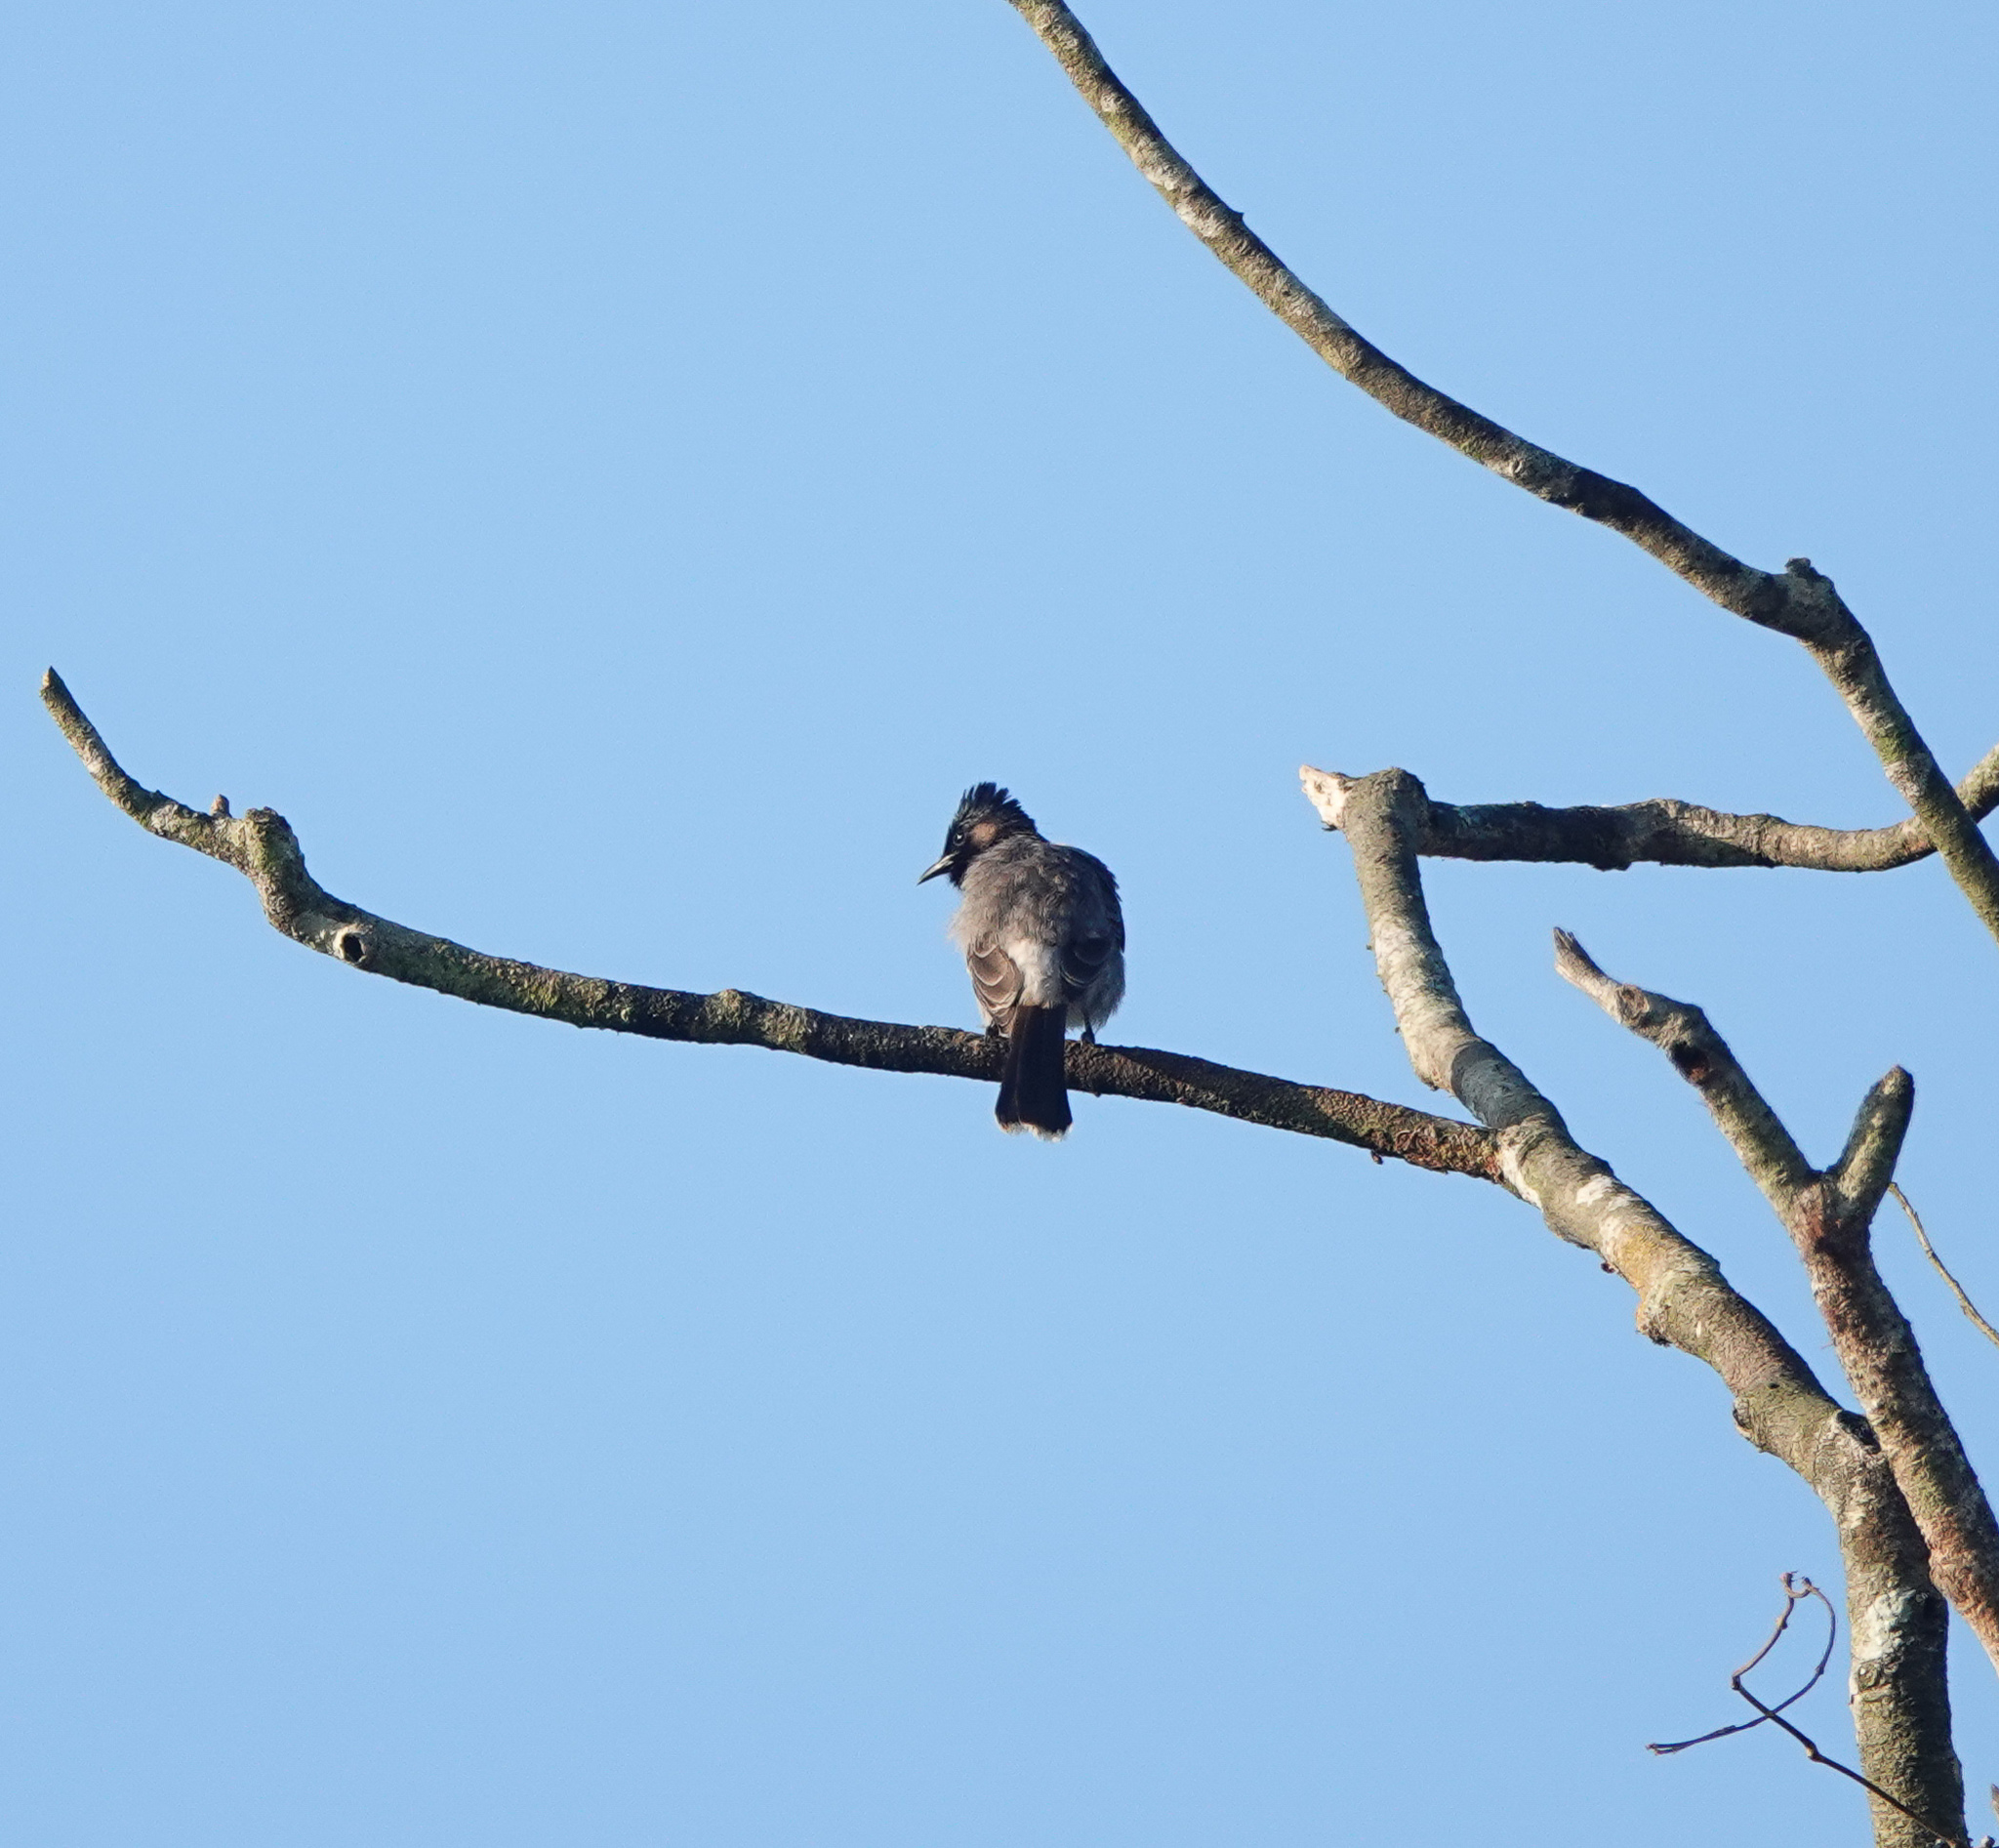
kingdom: Animalia
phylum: Chordata
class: Aves
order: Passeriformes
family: Pycnonotidae
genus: Pycnonotus
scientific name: Pycnonotus cafer
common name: Red-vented bulbul
